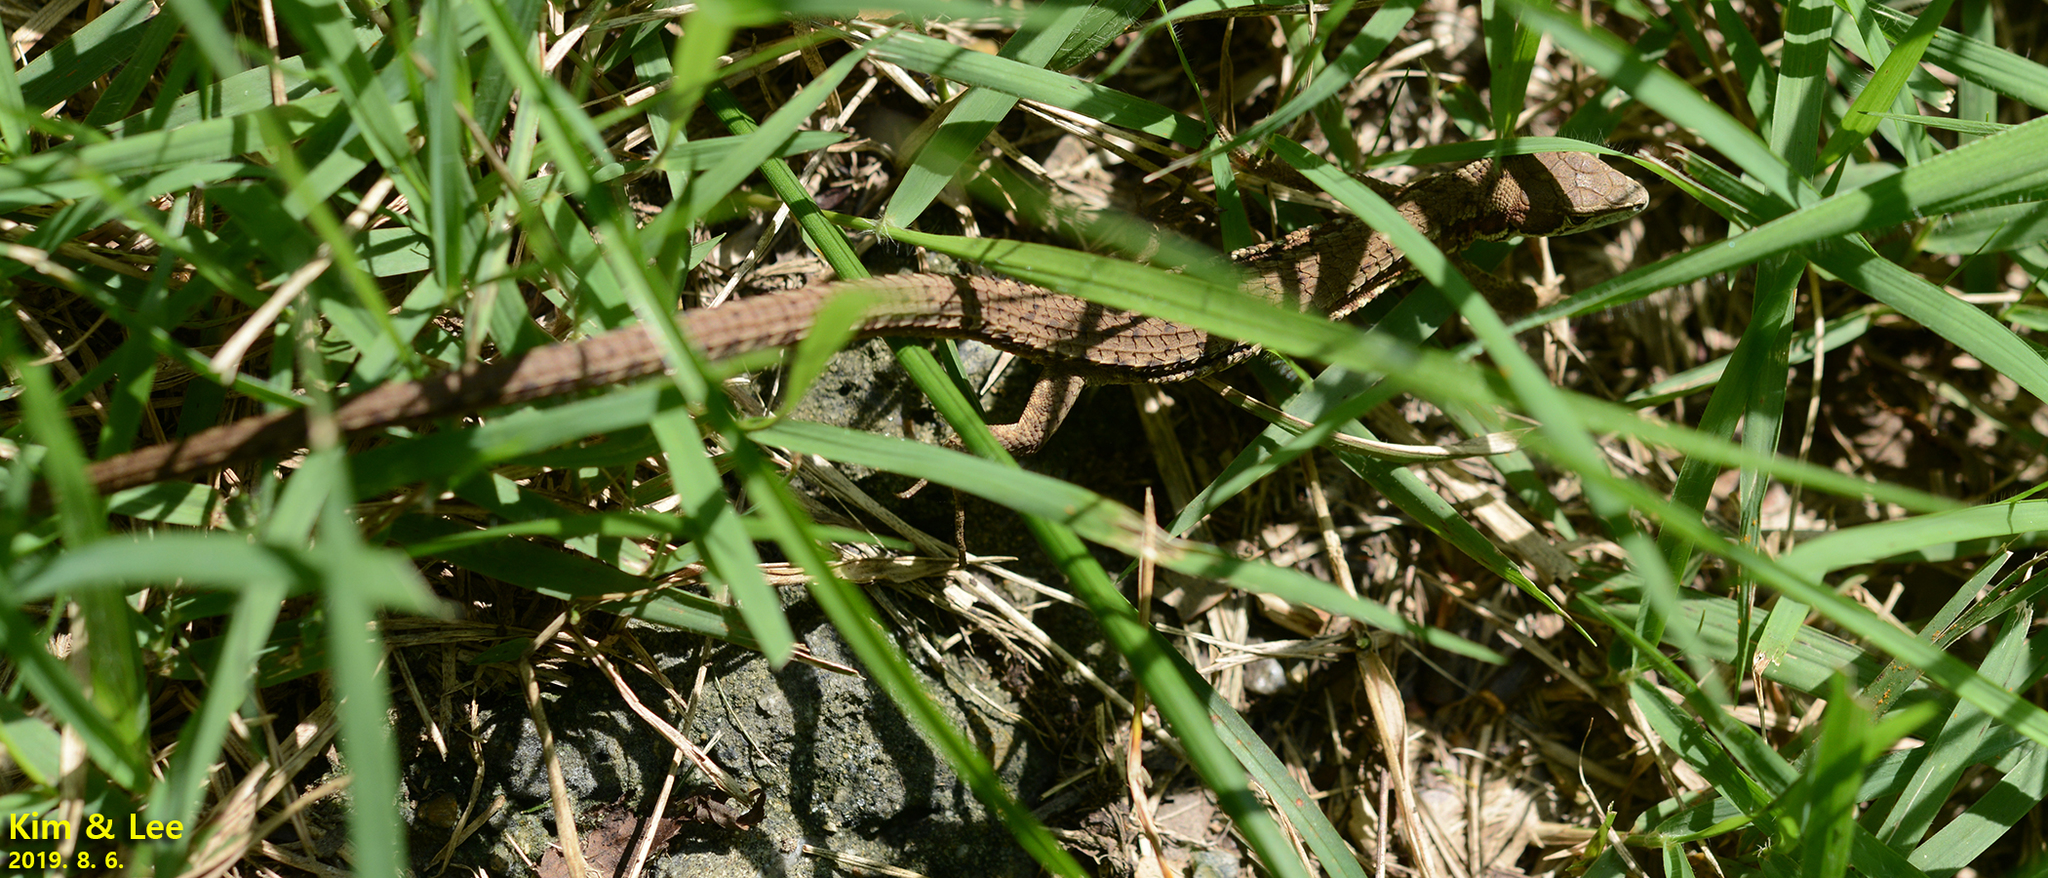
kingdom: Animalia
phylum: Chordata
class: Squamata
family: Lacertidae
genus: Takydromus
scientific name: Takydromus amurensis
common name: Amur grass lizard
